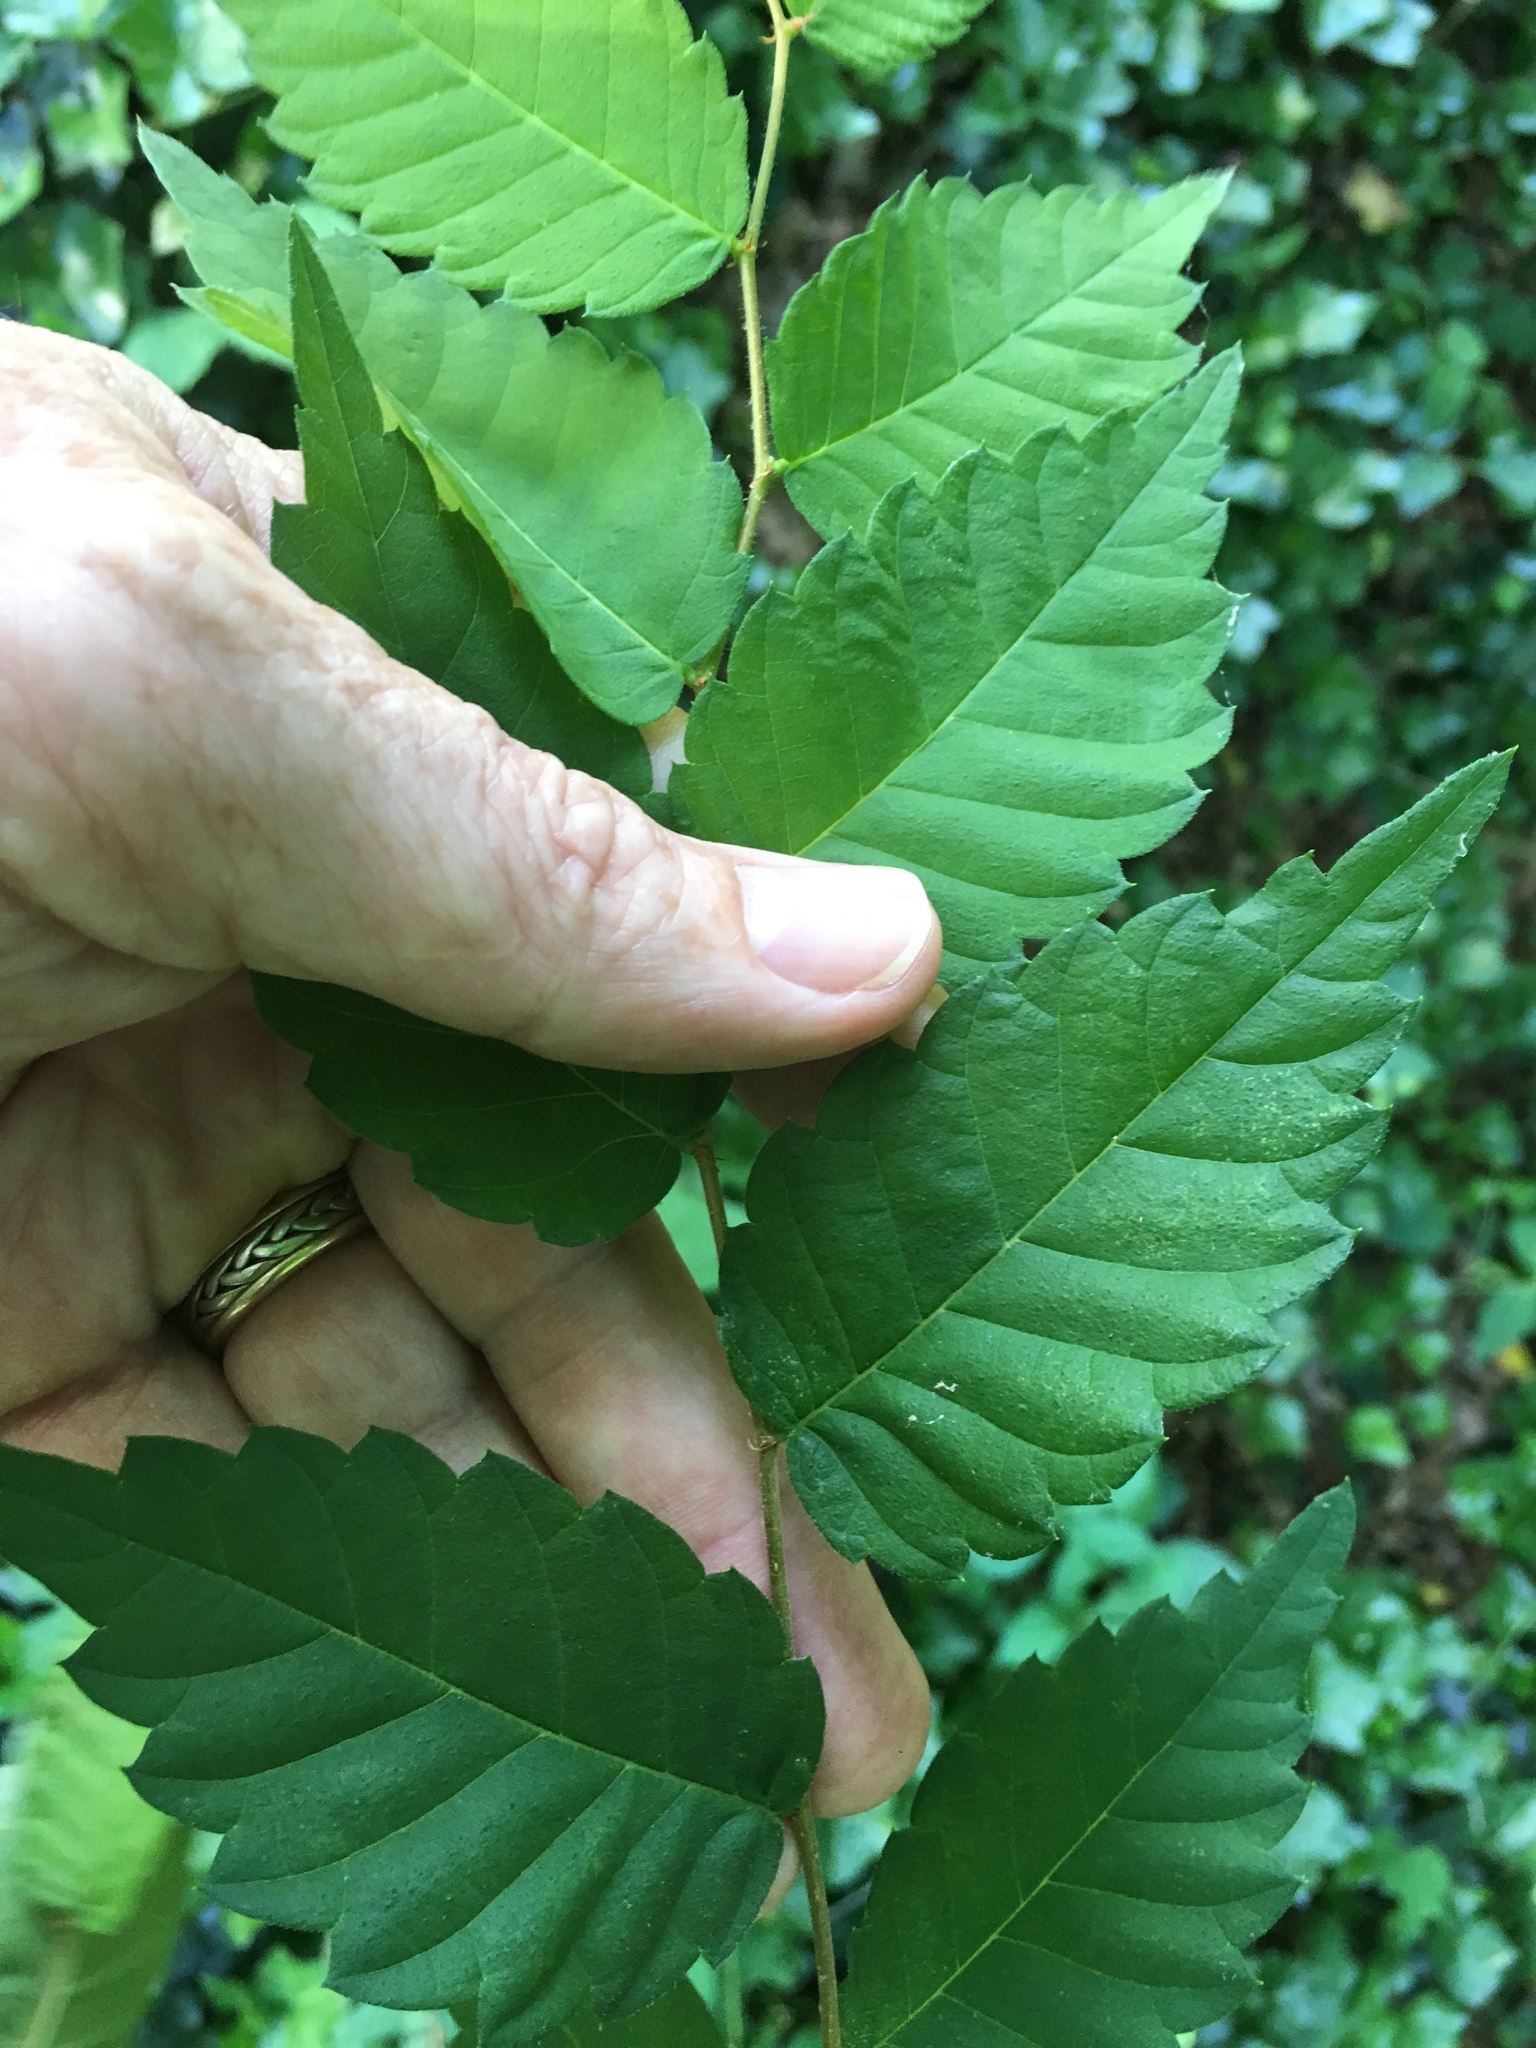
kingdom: Plantae
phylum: Tracheophyta
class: Magnoliopsida
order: Rosales
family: Ulmaceae
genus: Zelkova
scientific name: Zelkova serrata
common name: Japanese zelkova
